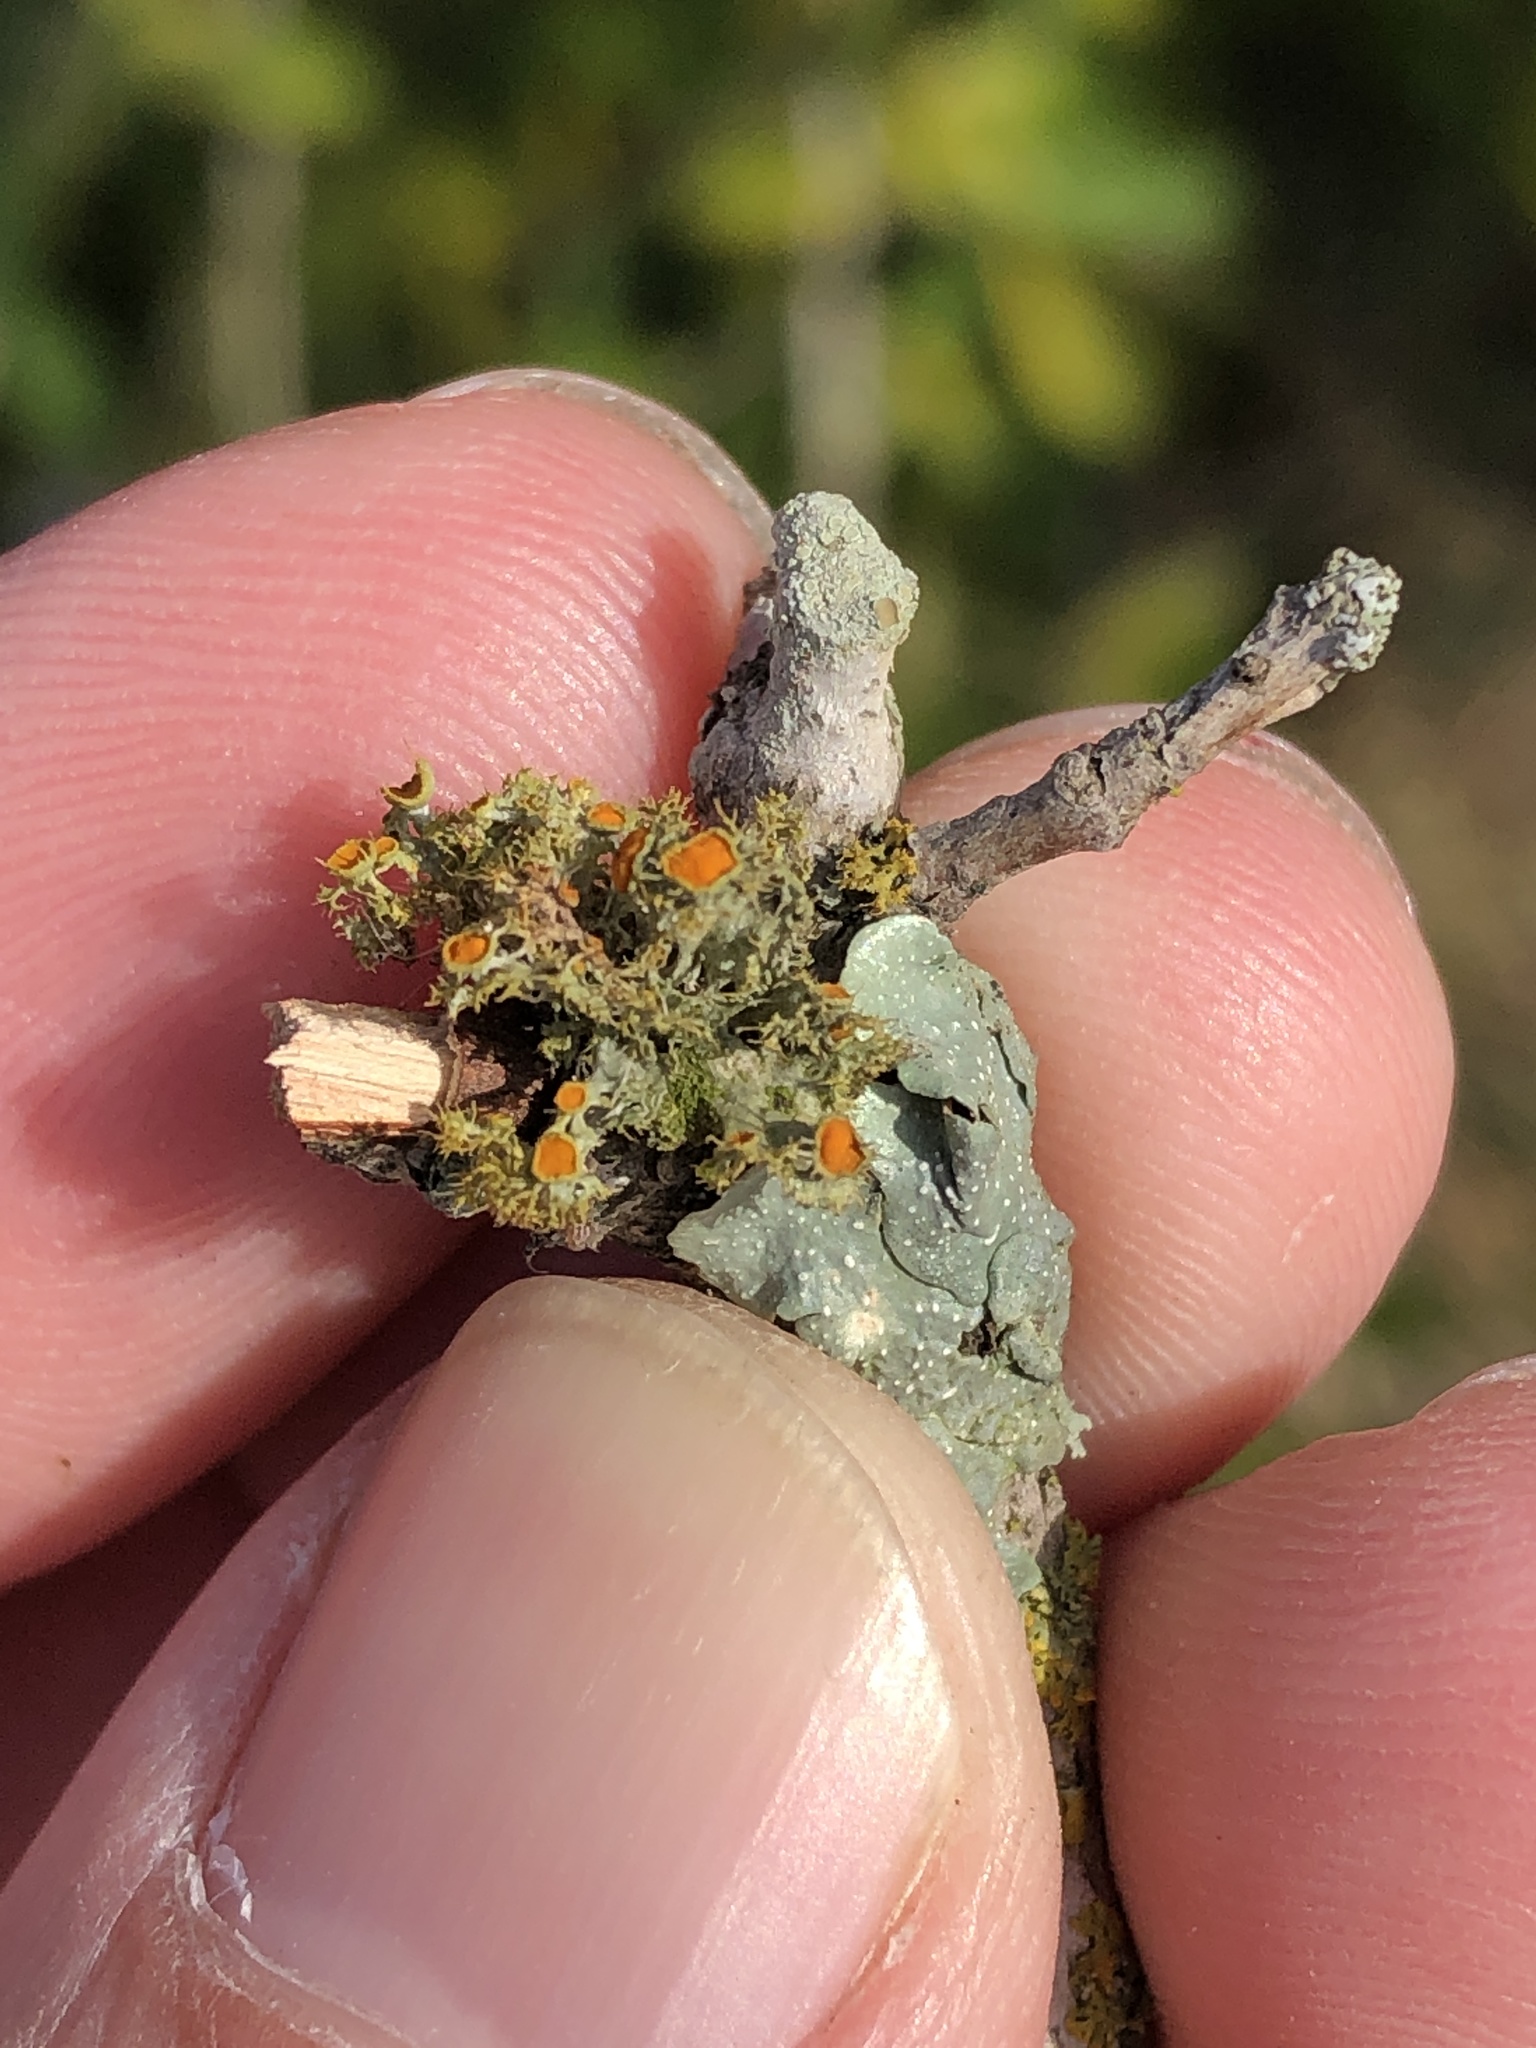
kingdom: Fungi
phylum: Ascomycota
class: Lecanoromycetes
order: Teloschistales
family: Teloschistaceae
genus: Niorma
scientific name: Niorma chrysophthalma
